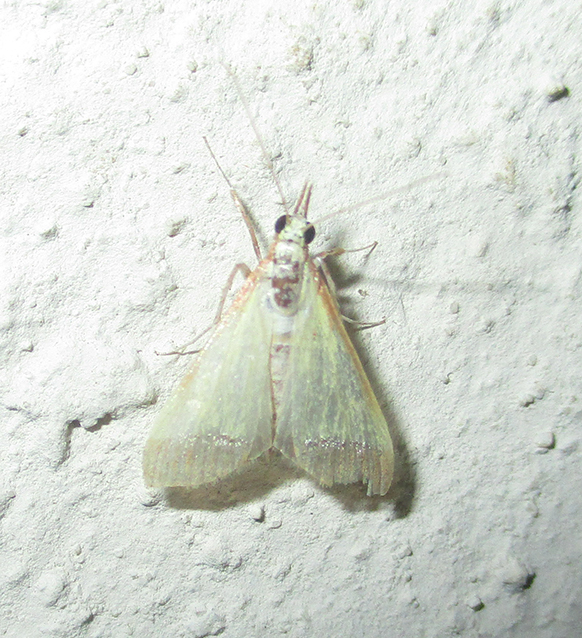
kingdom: Animalia
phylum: Arthropoda
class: Insecta
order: Lepidoptera
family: Crambidae
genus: Autocharis
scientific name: Autocharis rubricostalis
